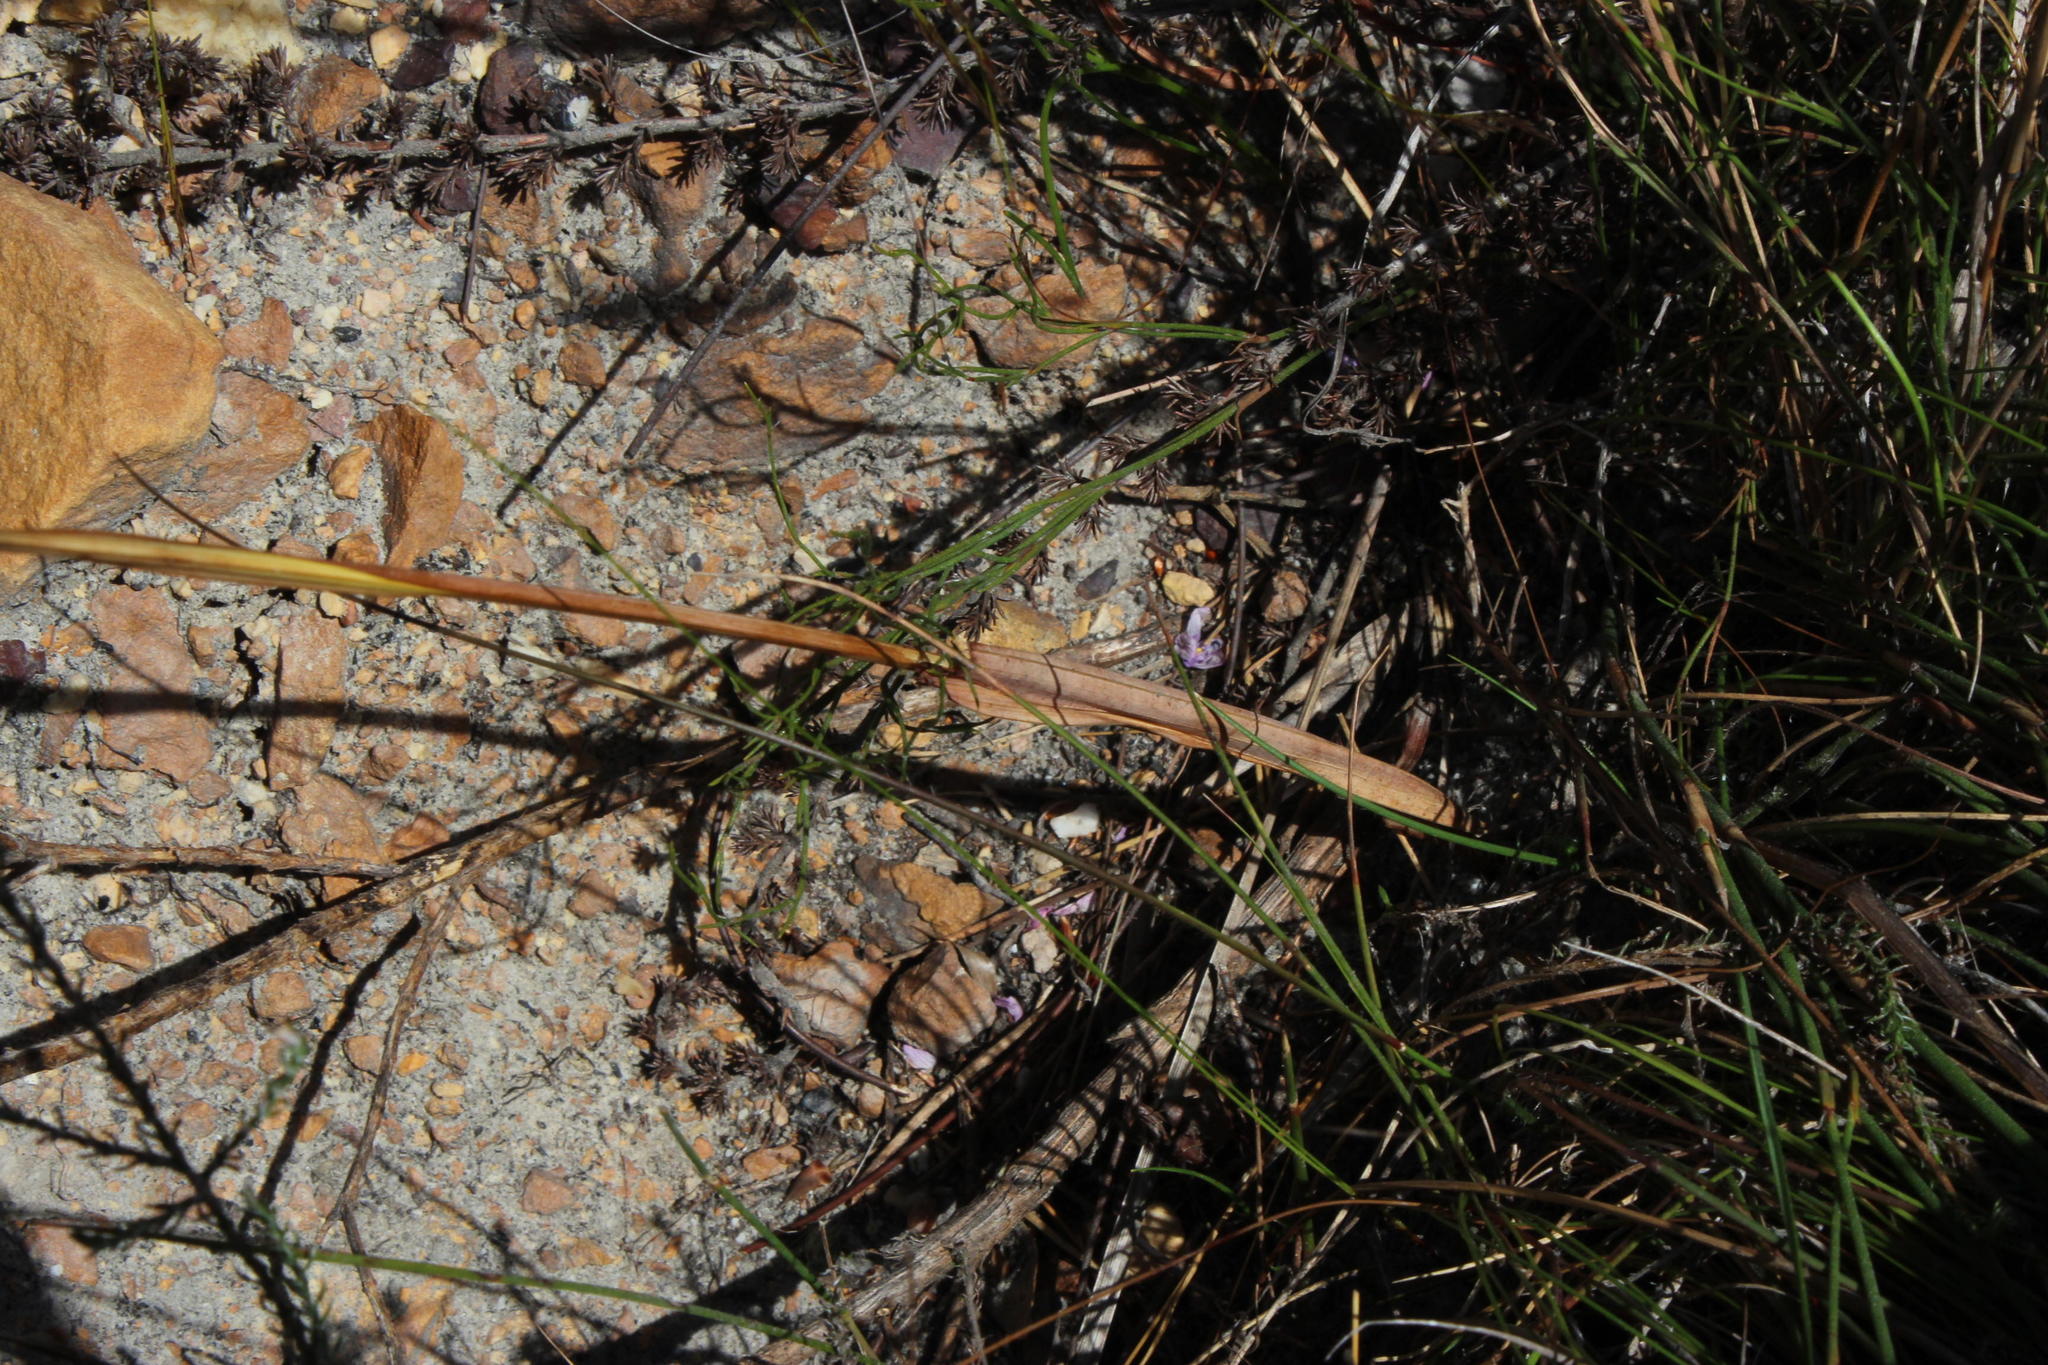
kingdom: Plantae
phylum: Tracheophyta
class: Liliopsida
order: Poales
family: Poaceae
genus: Tribolium
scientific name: Tribolium uniolae
